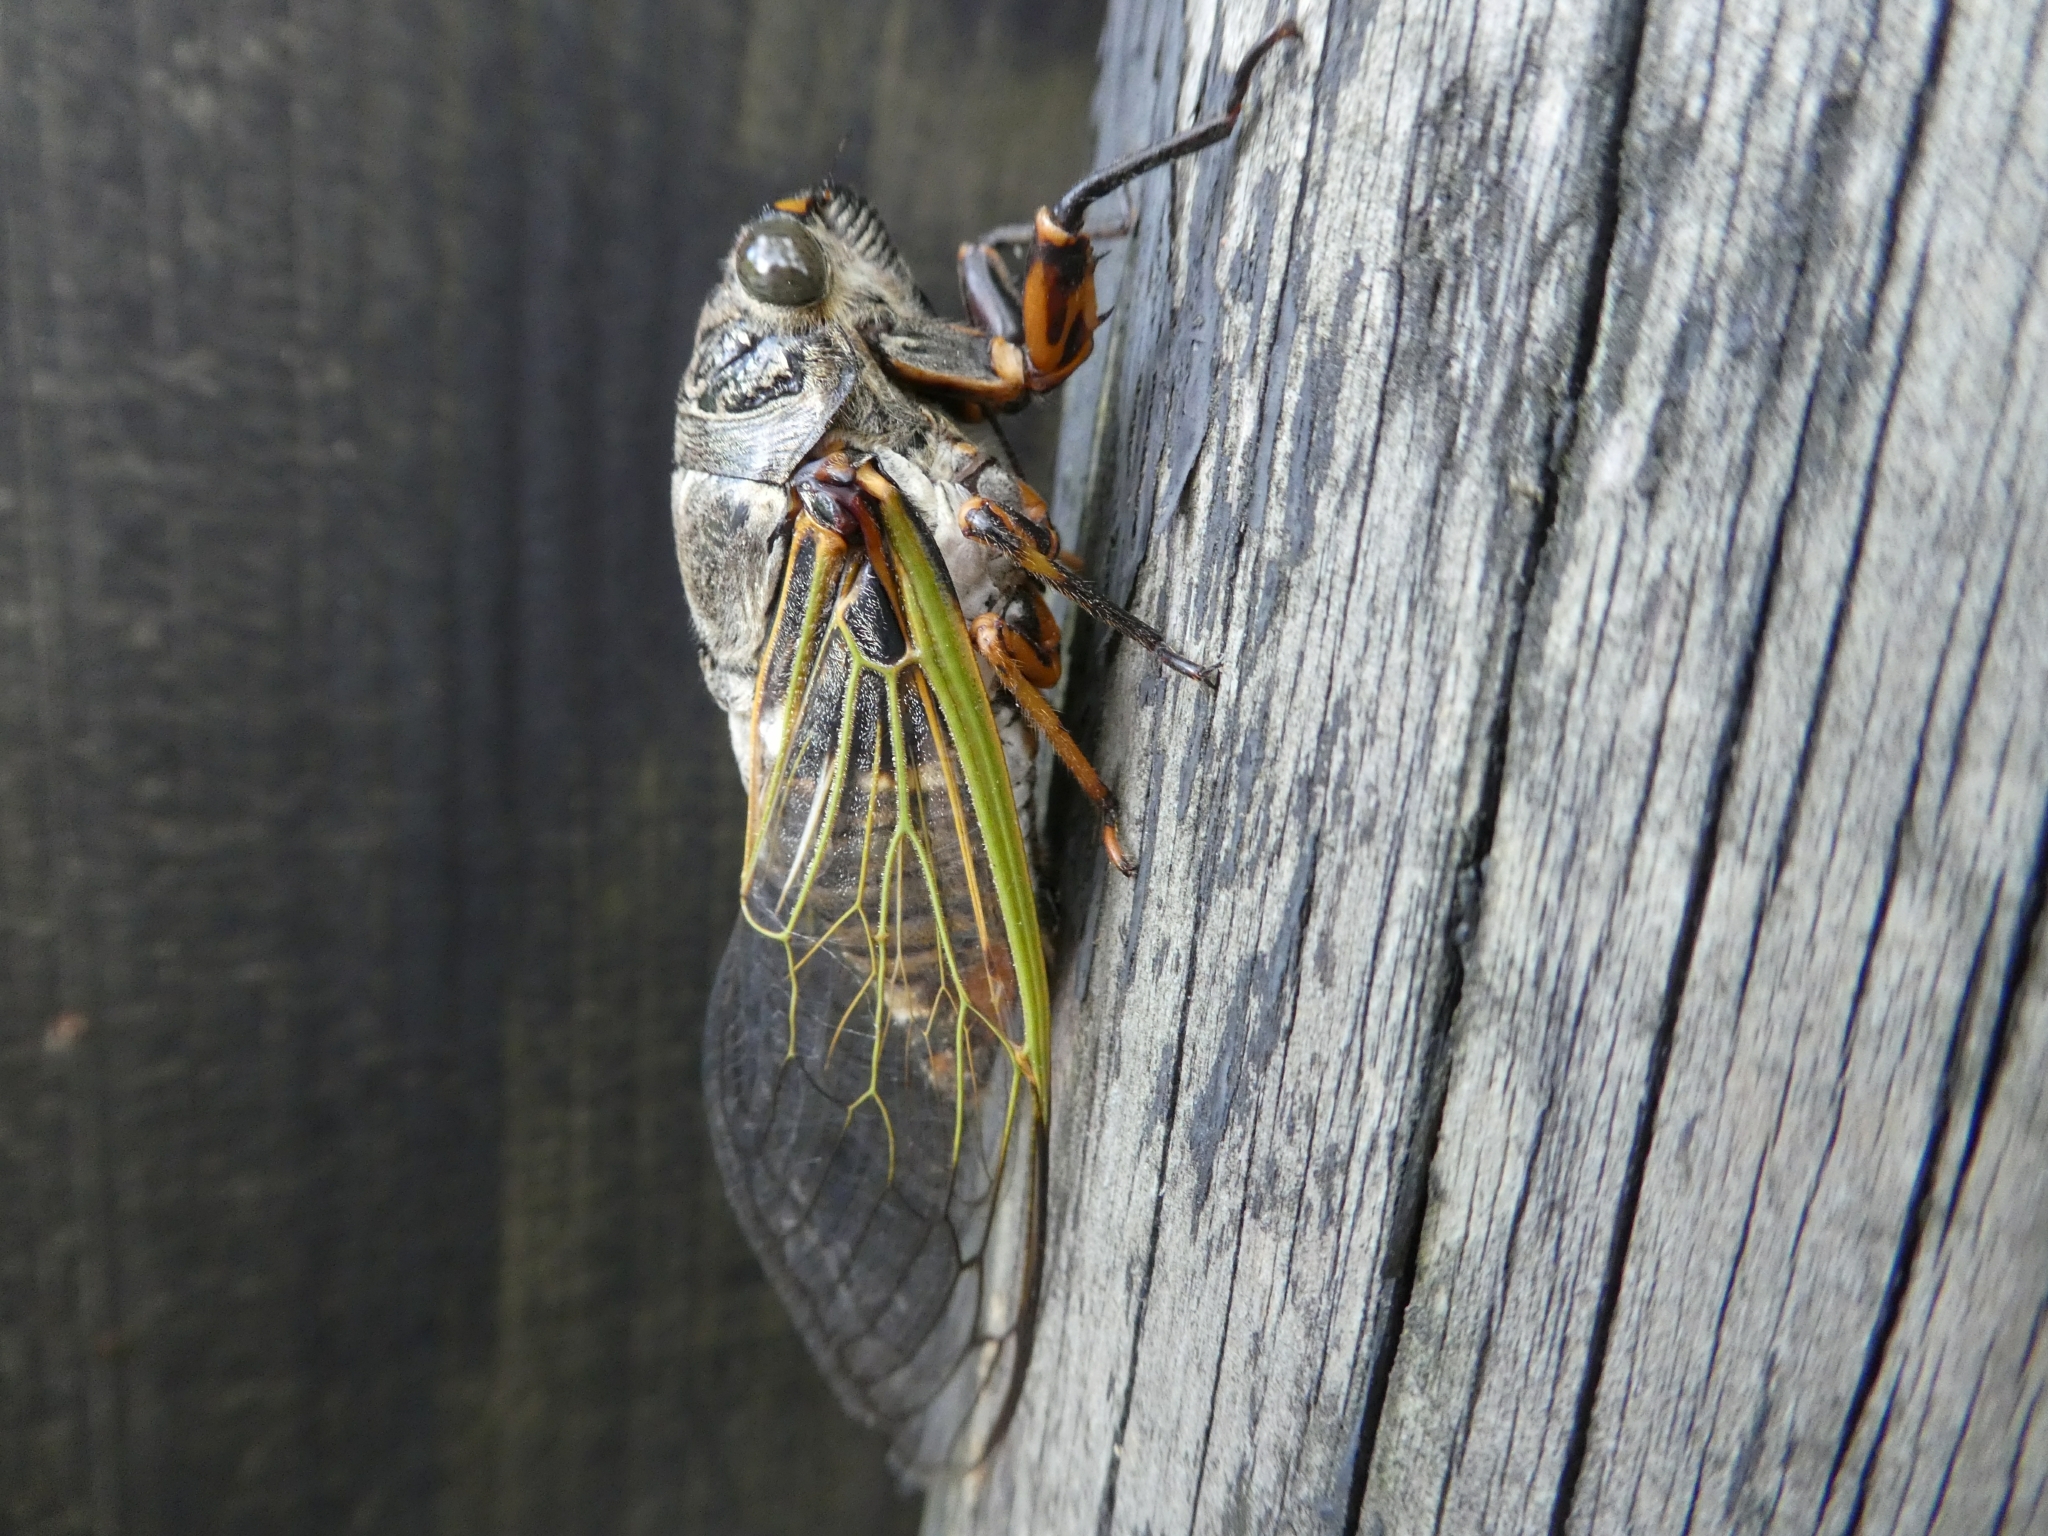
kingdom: Animalia
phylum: Arthropoda
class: Insecta
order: Hemiptera
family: Cicadidae
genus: Cryptotympana
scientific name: Cryptotympana facialis
